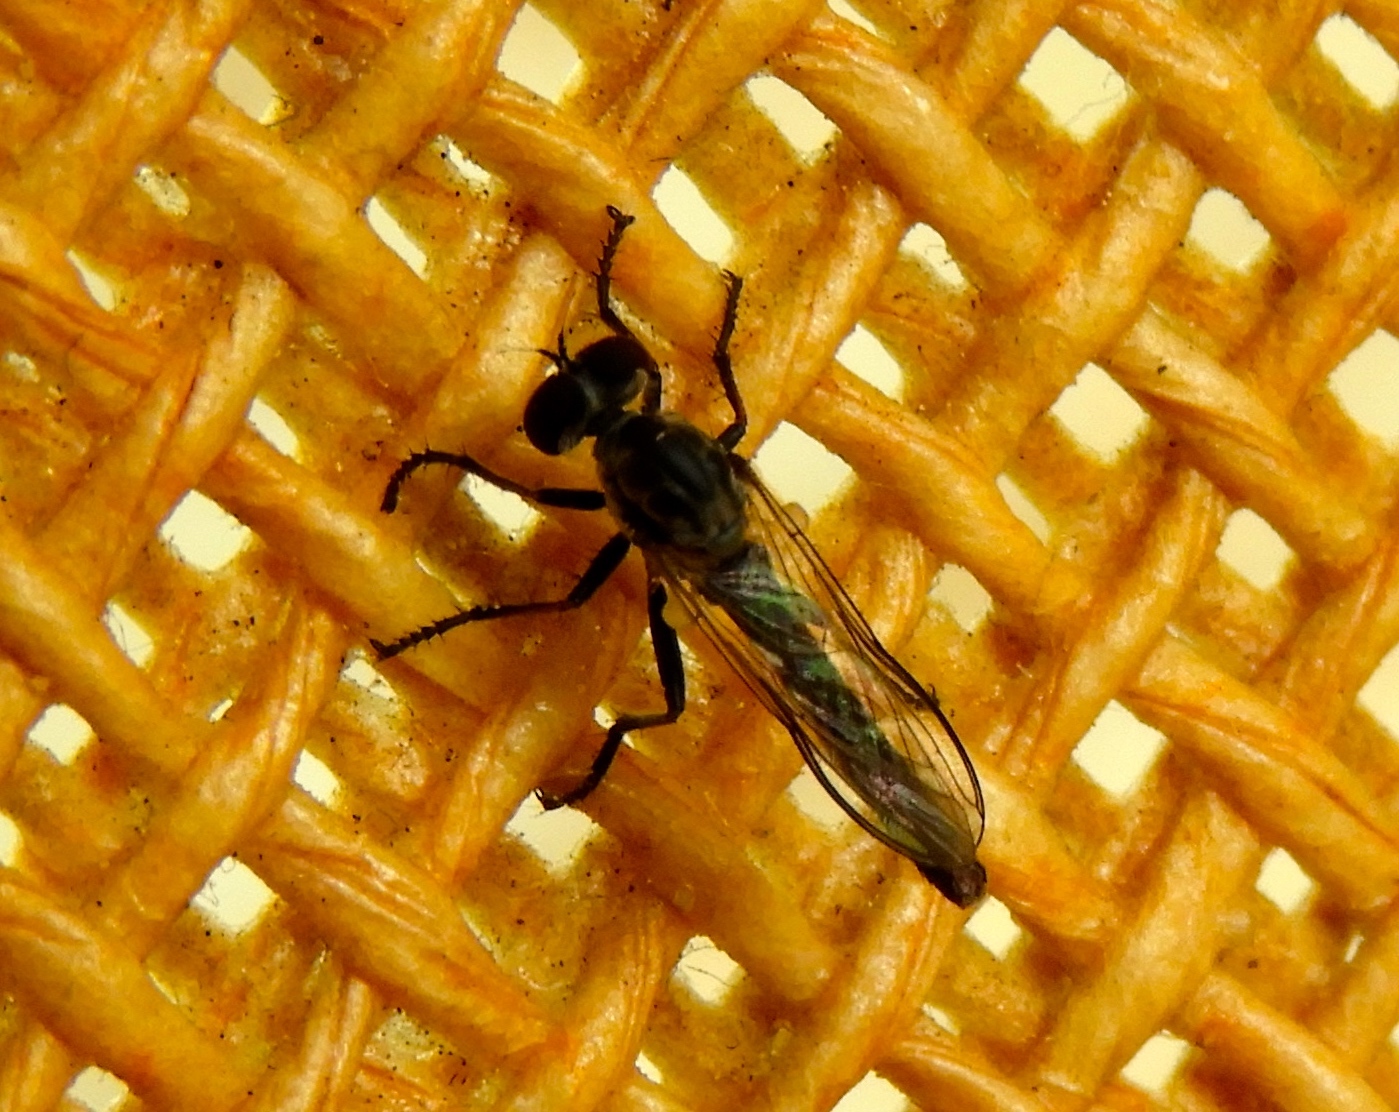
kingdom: Animalia
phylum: Arthropoda
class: Insecta
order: Diptera
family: Asilidae
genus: Ommatius
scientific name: Ommatius
